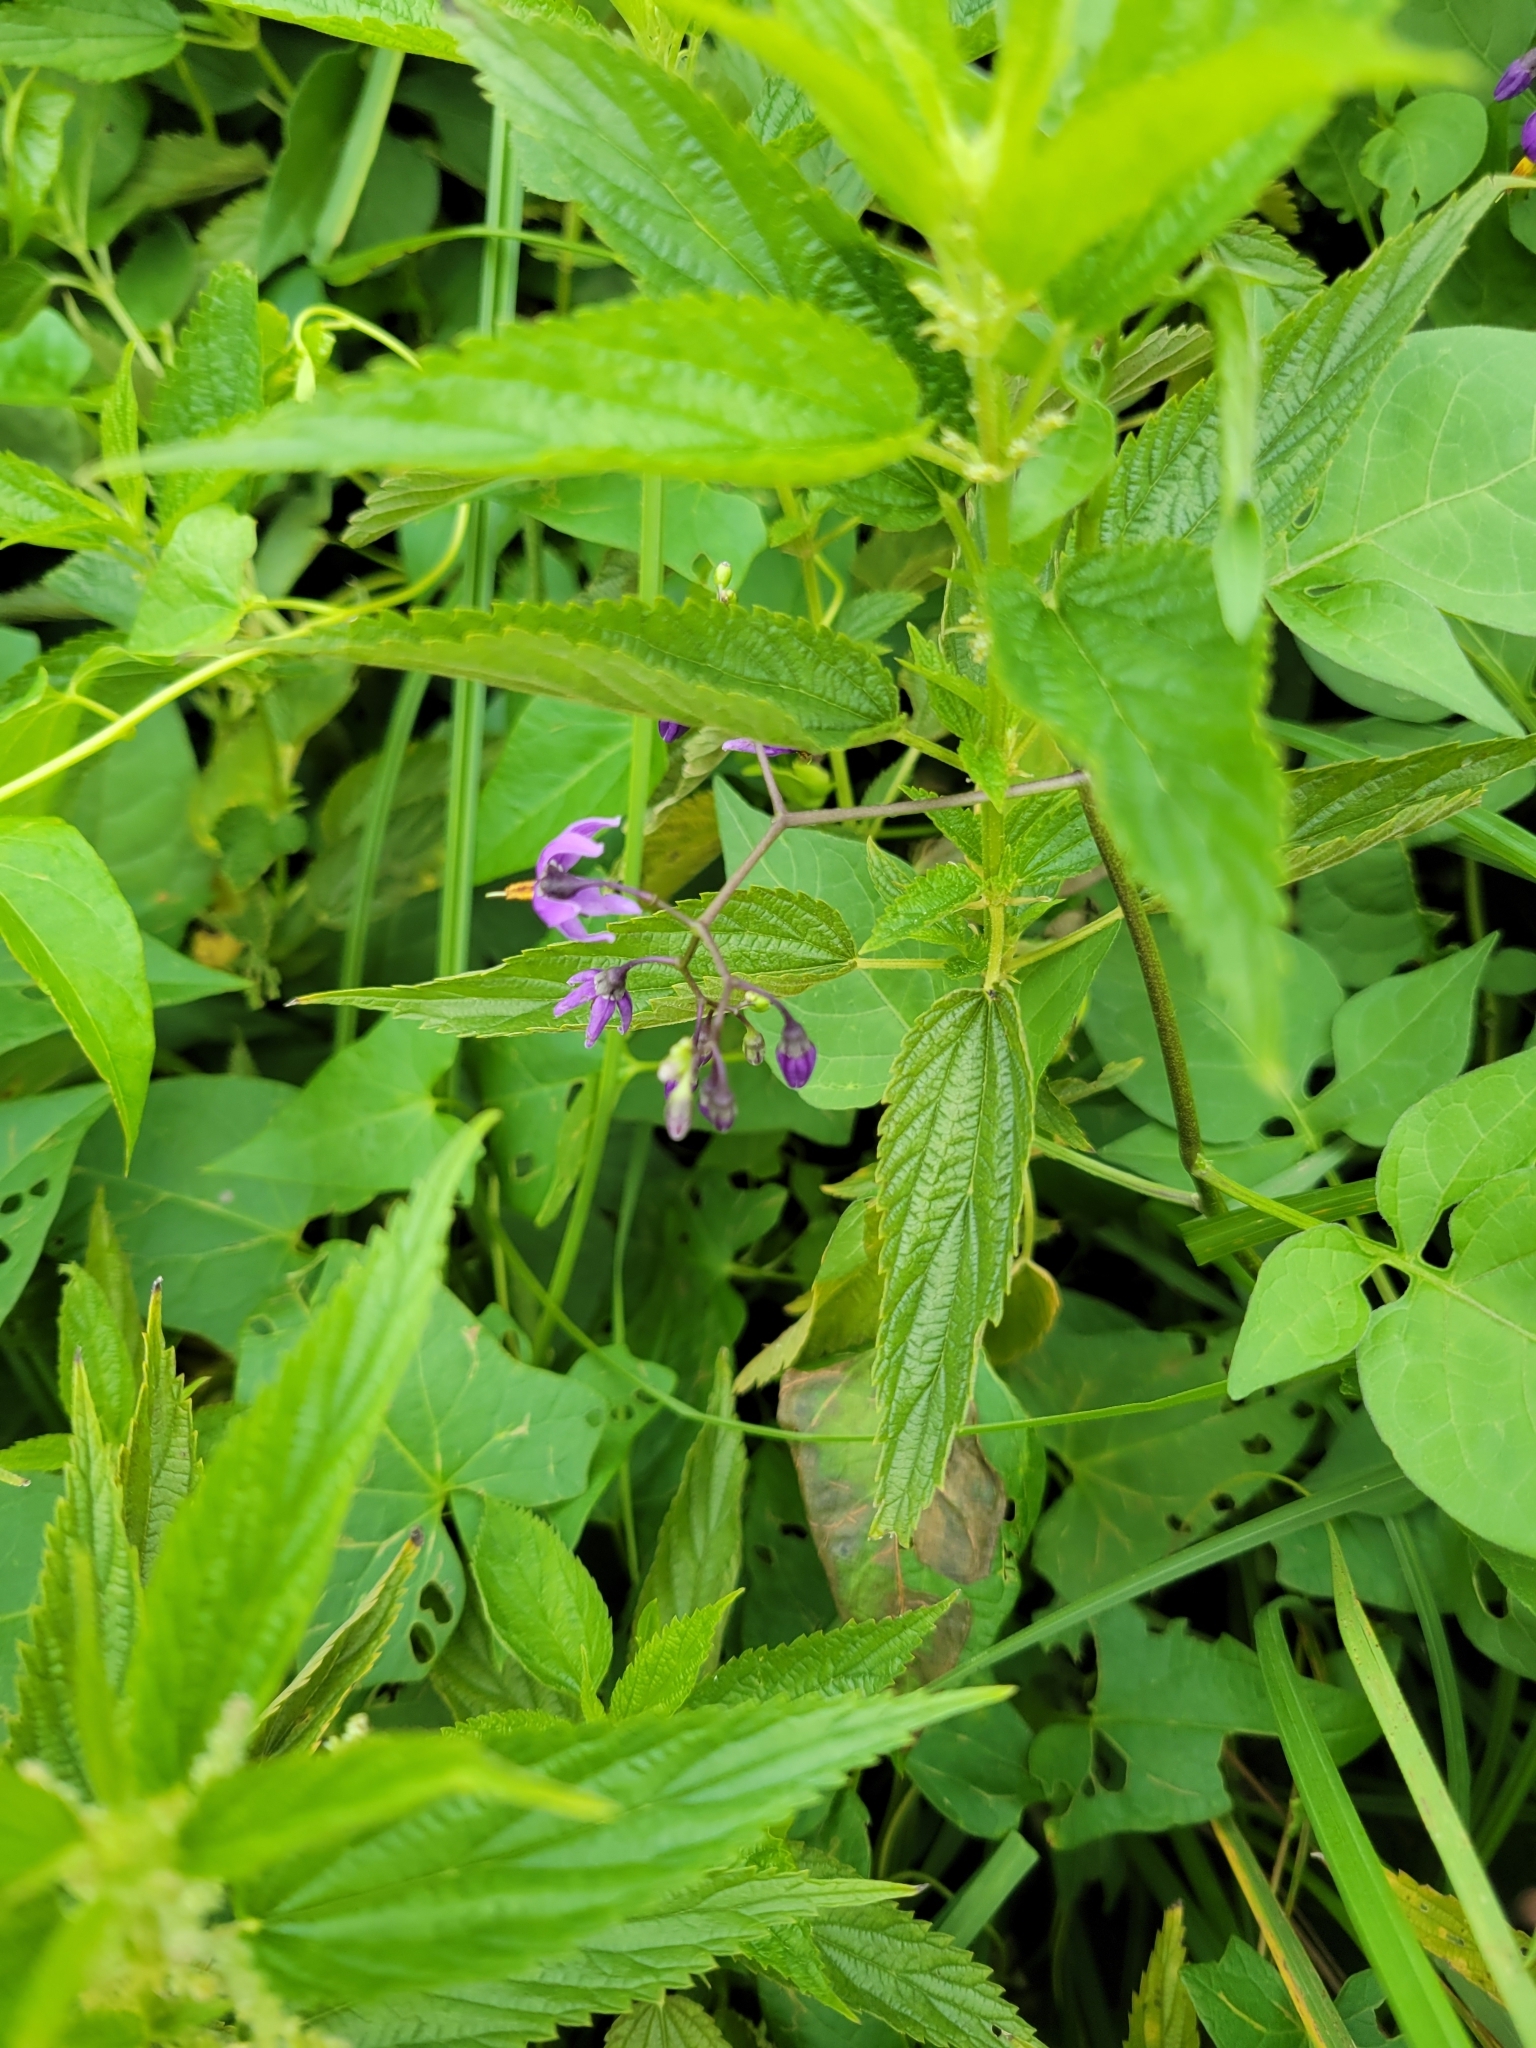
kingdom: Plantae
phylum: Tracheophyta
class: Magnoliopsida
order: Solanales
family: Solanaceae
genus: Solanum
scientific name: Solanum dulcamara
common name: Climbing nightshade
